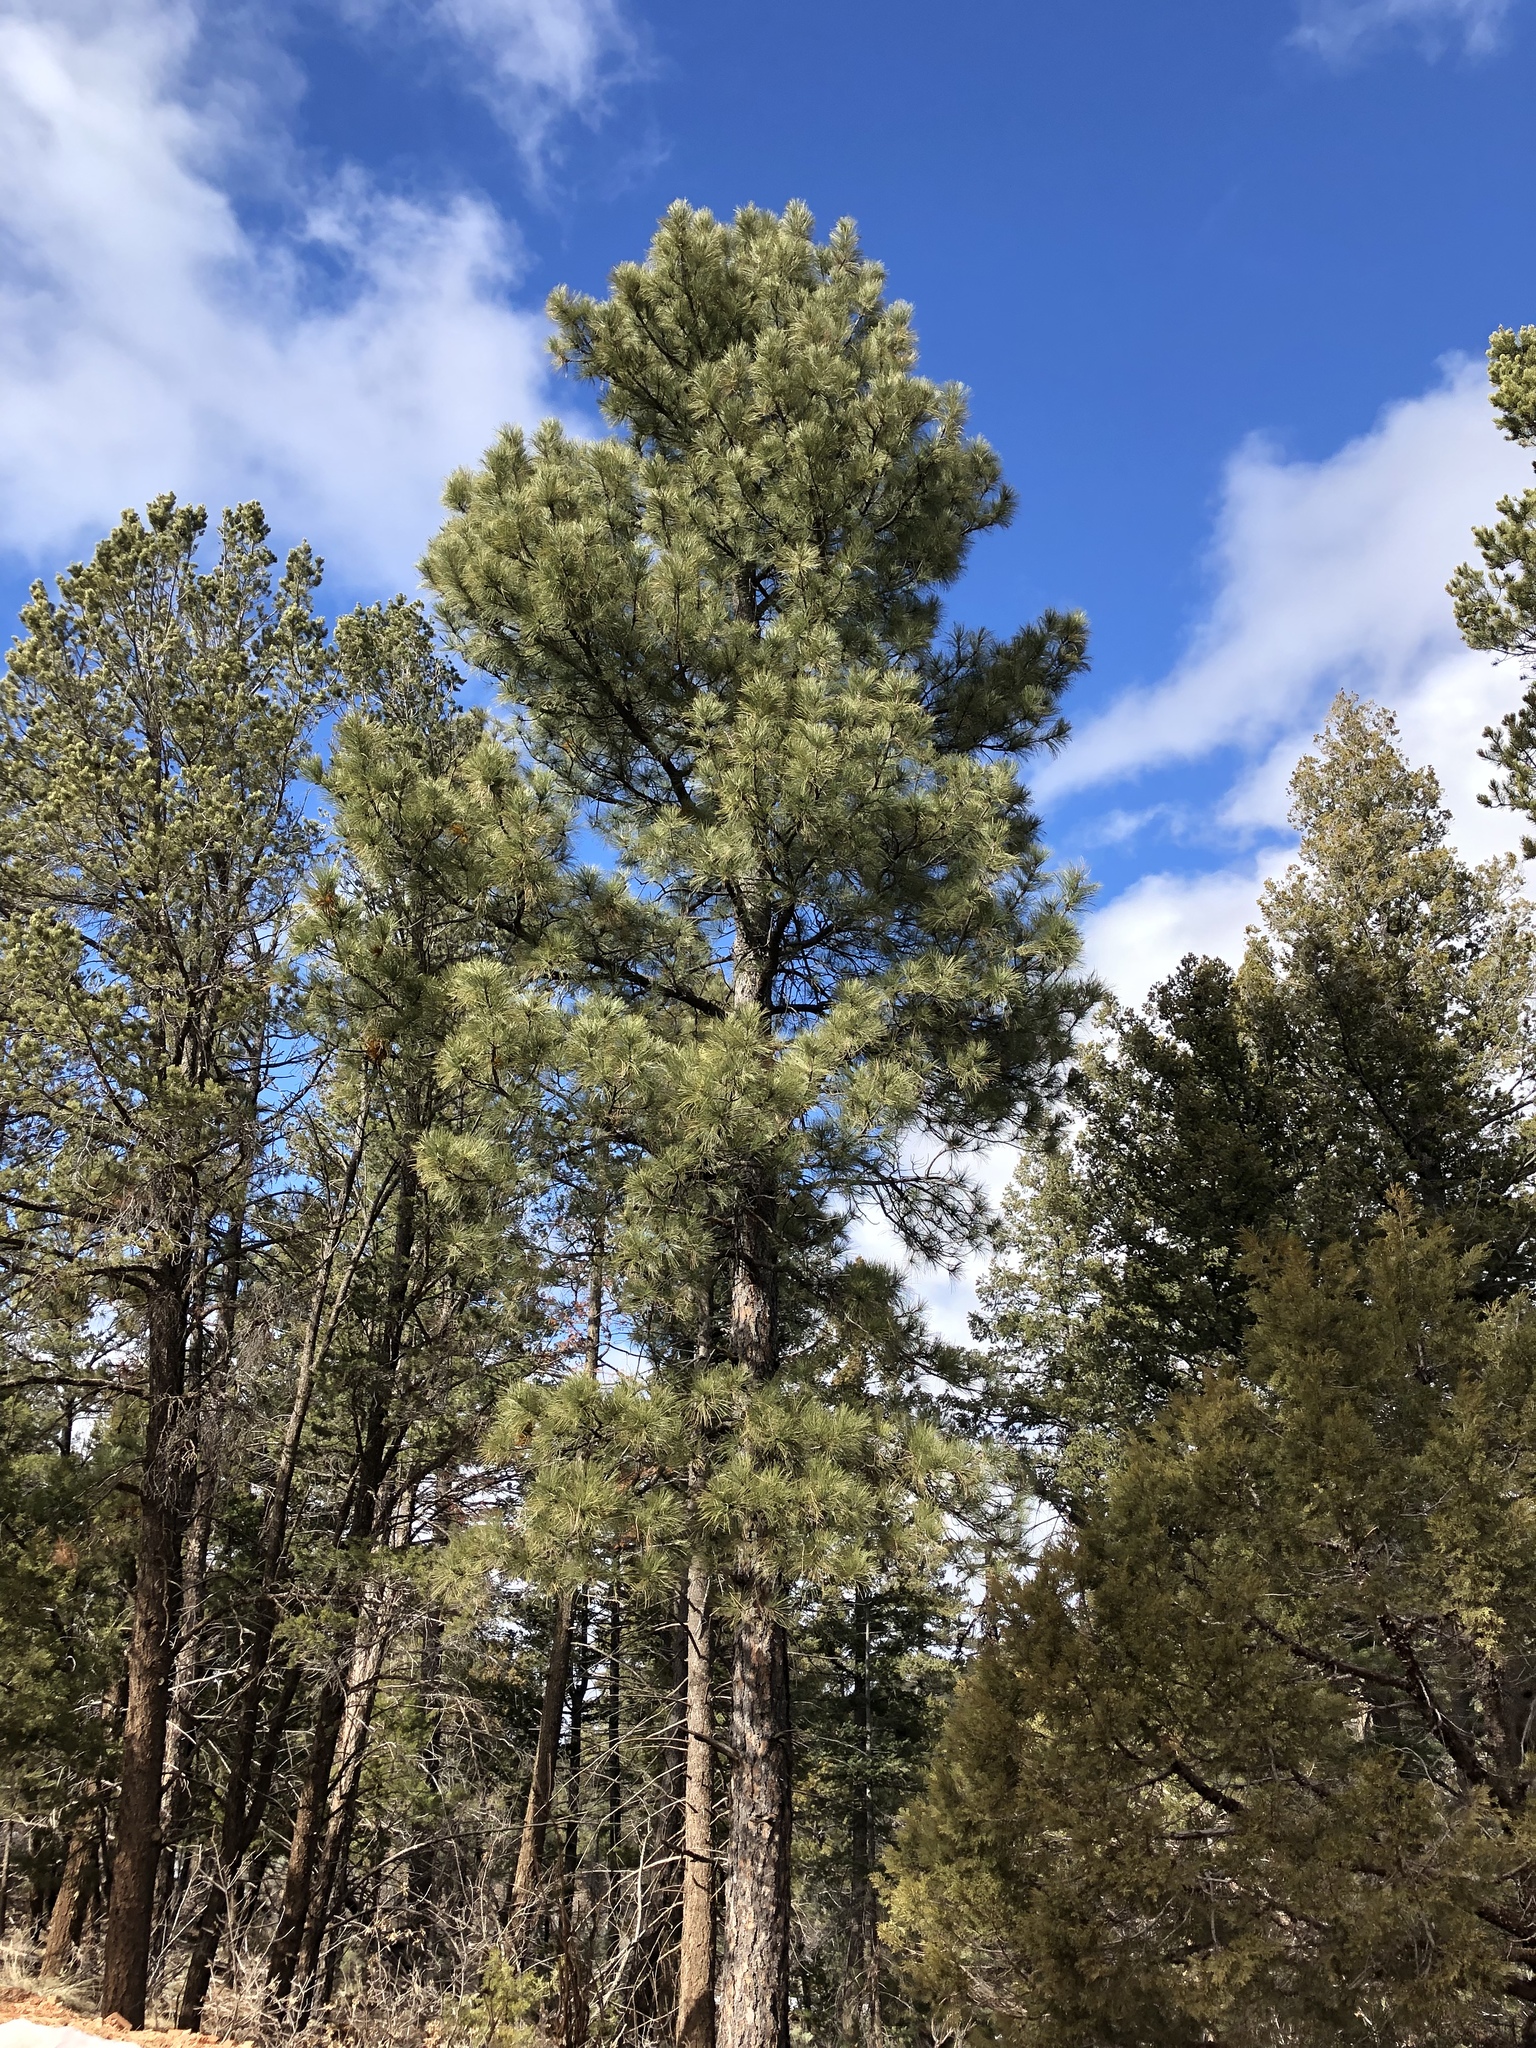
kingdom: Plantae
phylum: Tracheophyta
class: Pinopsida
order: Pinales
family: Pinaceae
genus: Pinus
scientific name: Pinus ponderosa
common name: Western yellow-pine
